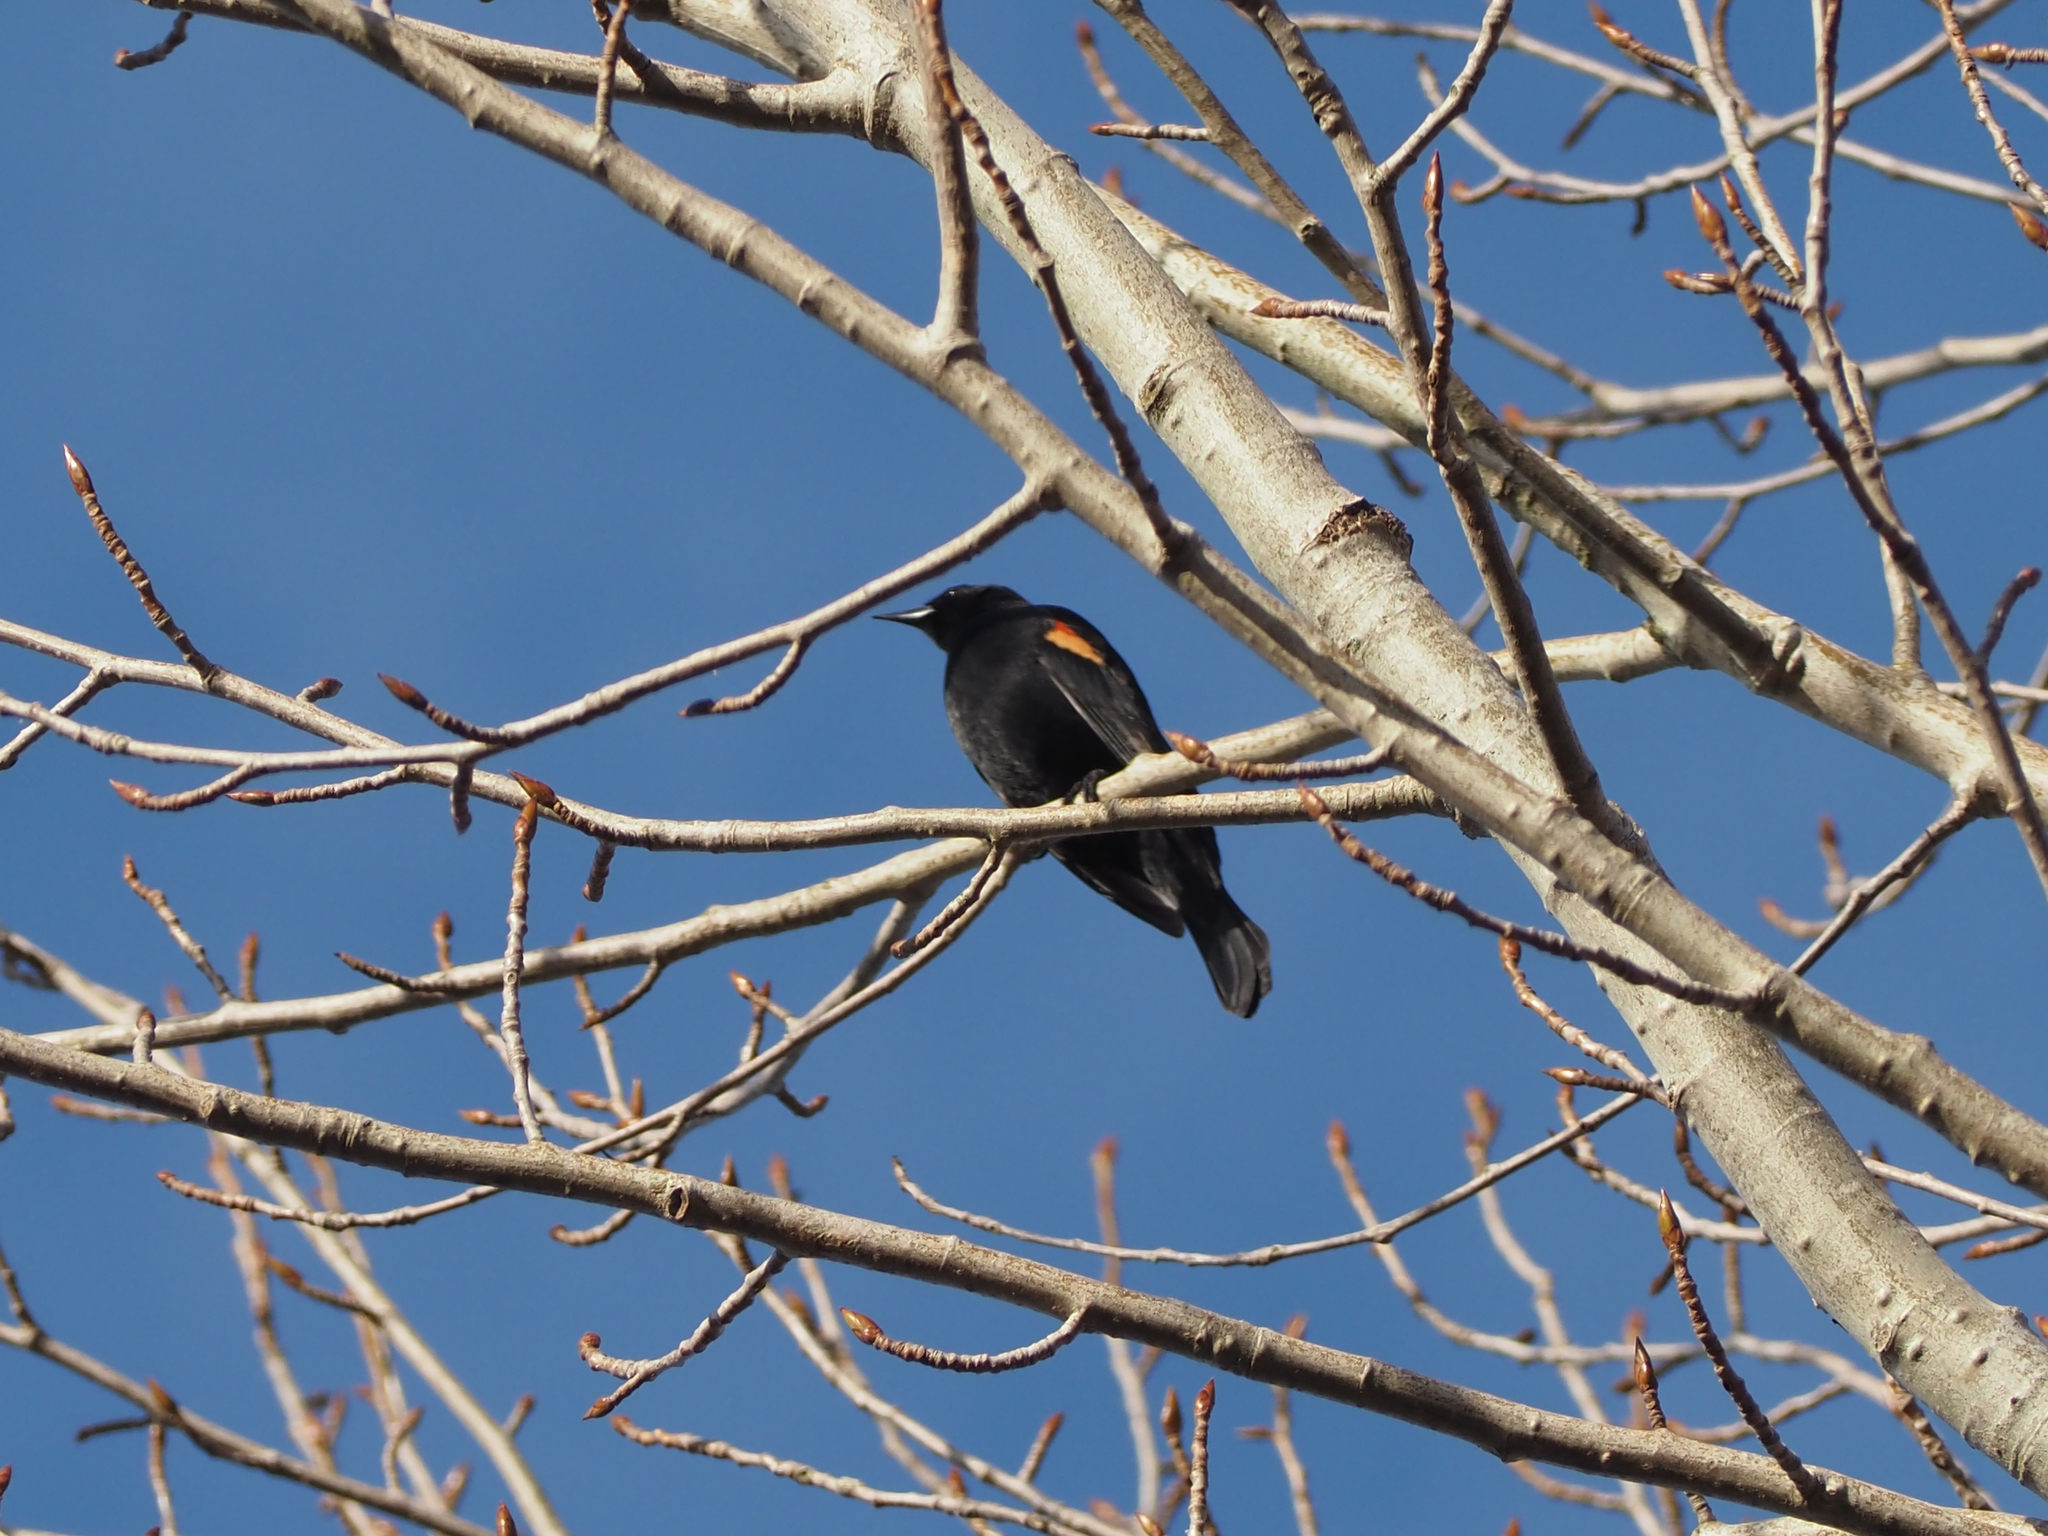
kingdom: Animalia
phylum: Chordata
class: Aves
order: Passeriformes
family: Icteridae
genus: Agelaius
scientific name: Agelaius phoeniceus
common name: Red-winged blackbird
